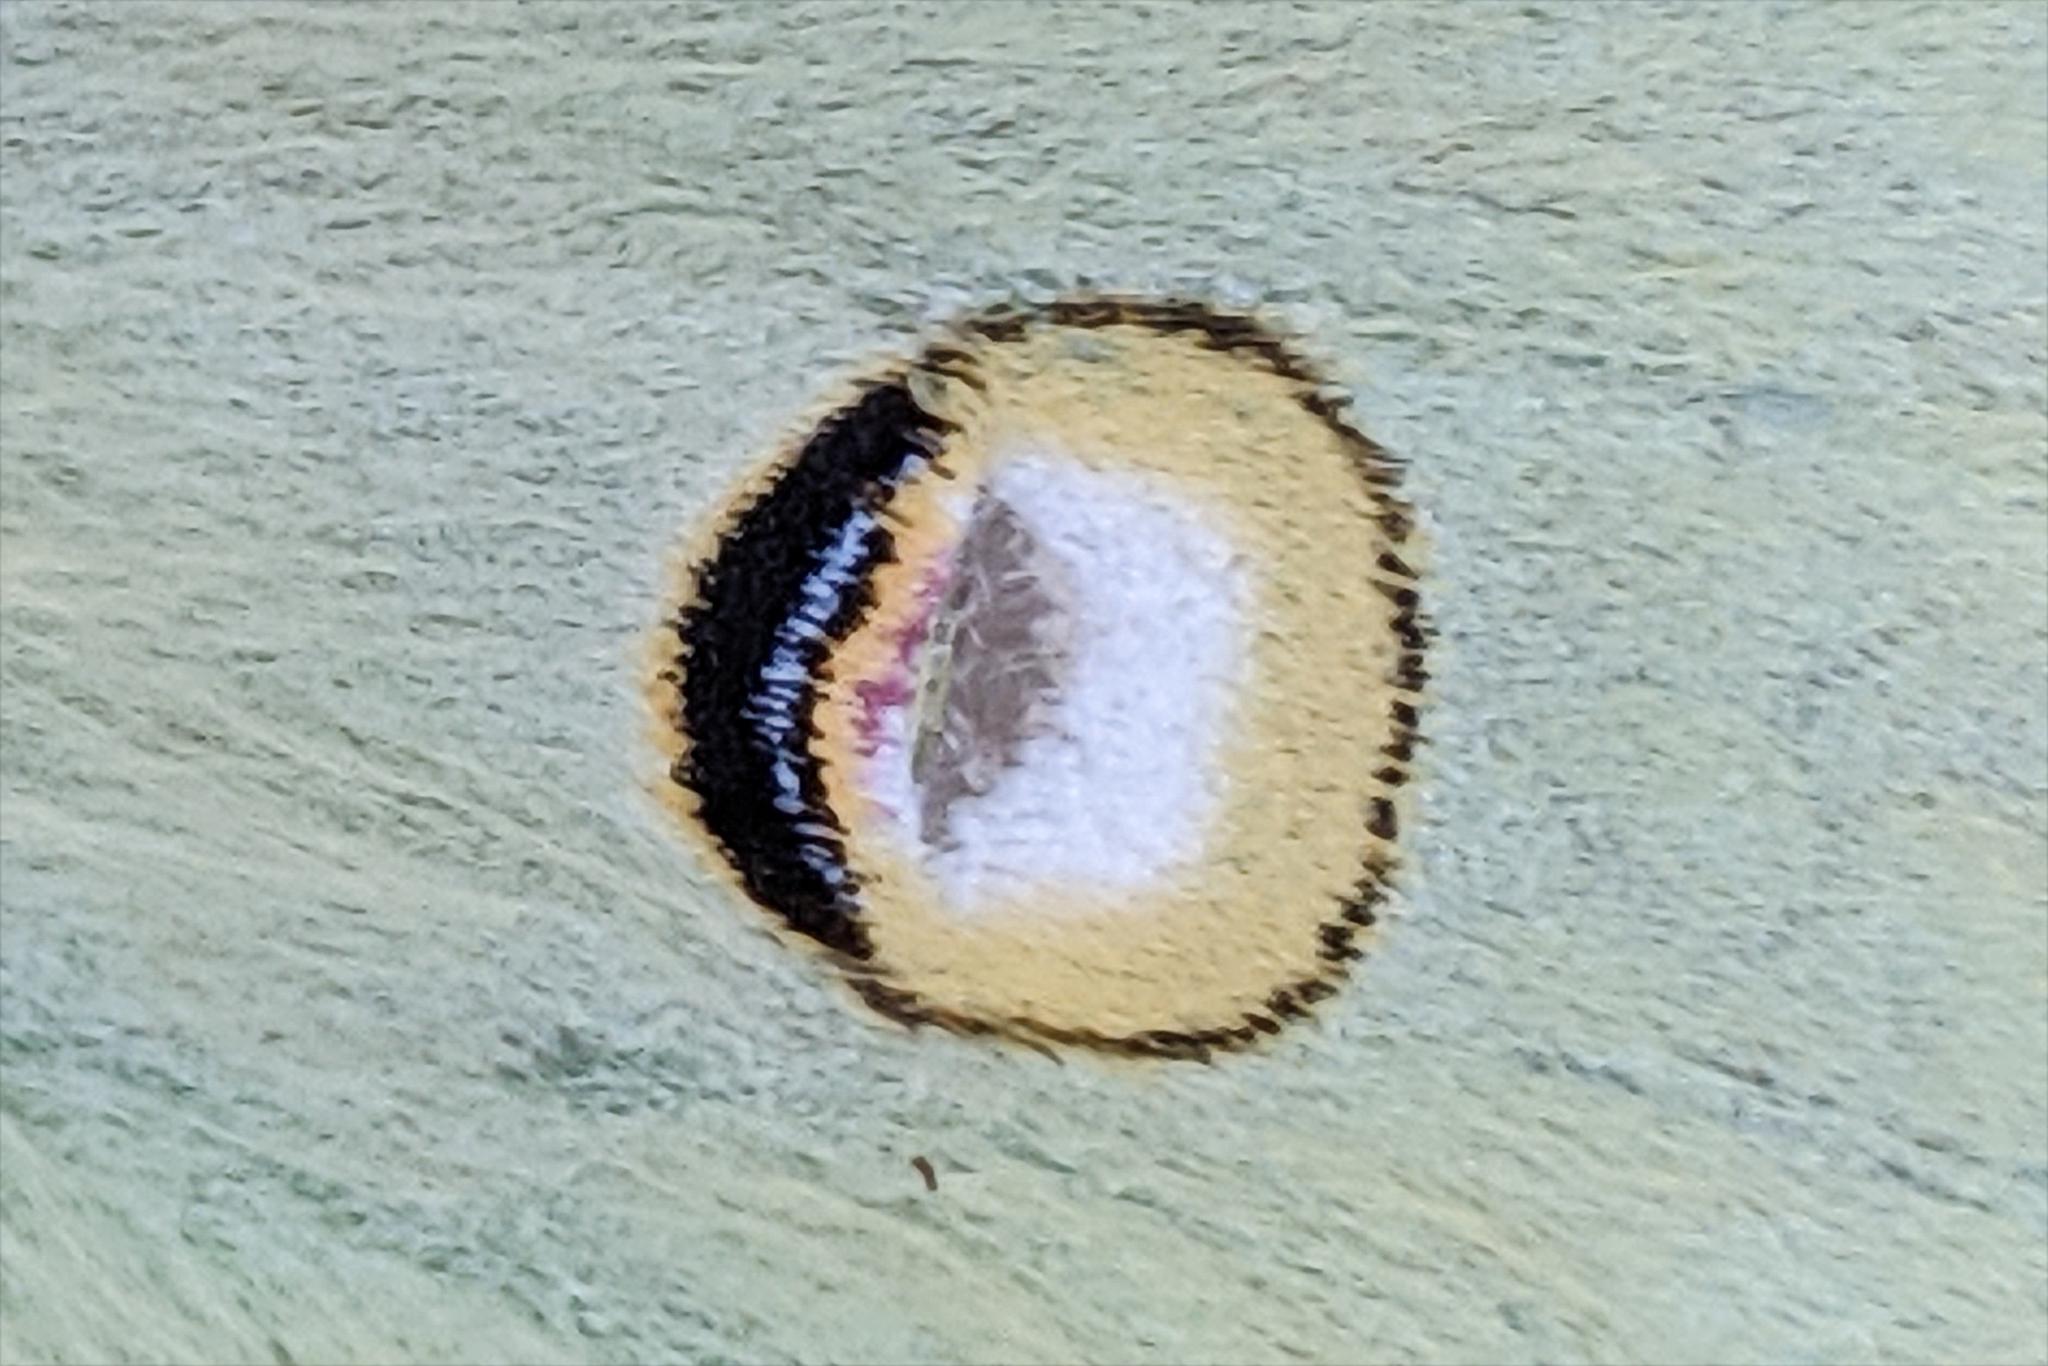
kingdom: Animalia
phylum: Arthropoda
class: Insecta
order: Lepidoptera
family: Saturniidae
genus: Actias
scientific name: Actias luna
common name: Luna moth
